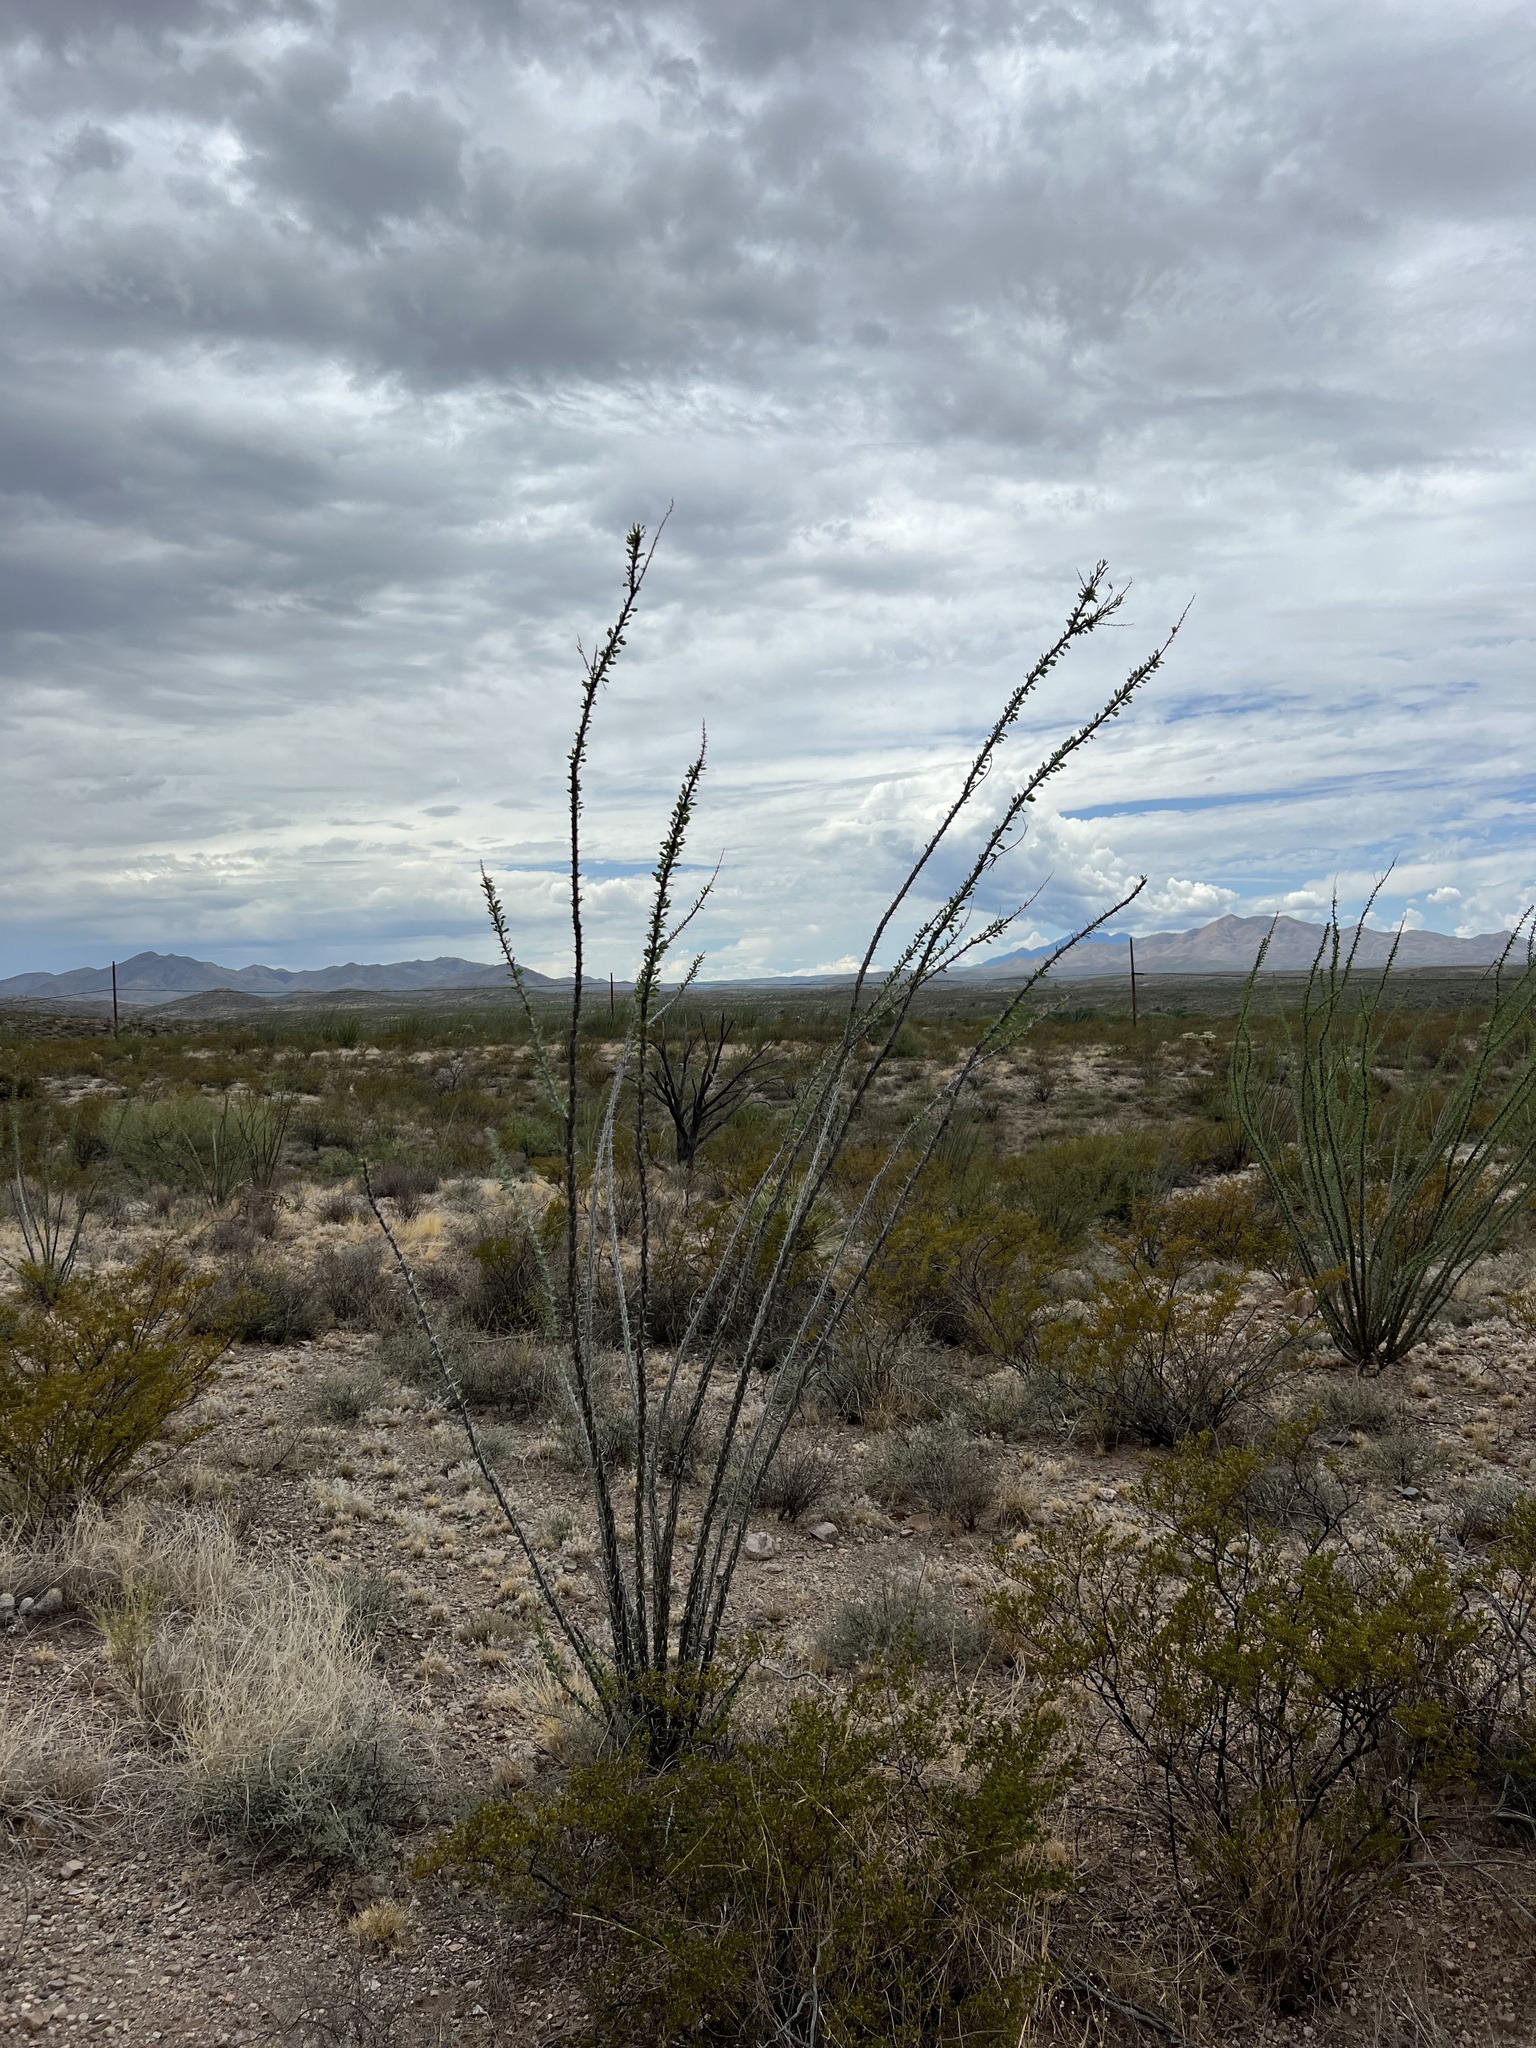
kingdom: Plantae
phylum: Tracheophyta
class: Magnoliopsida
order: Ericales
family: Fouquieriaceae
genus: Fouquieria
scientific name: Fouquieria splendens
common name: Vine-cactus
